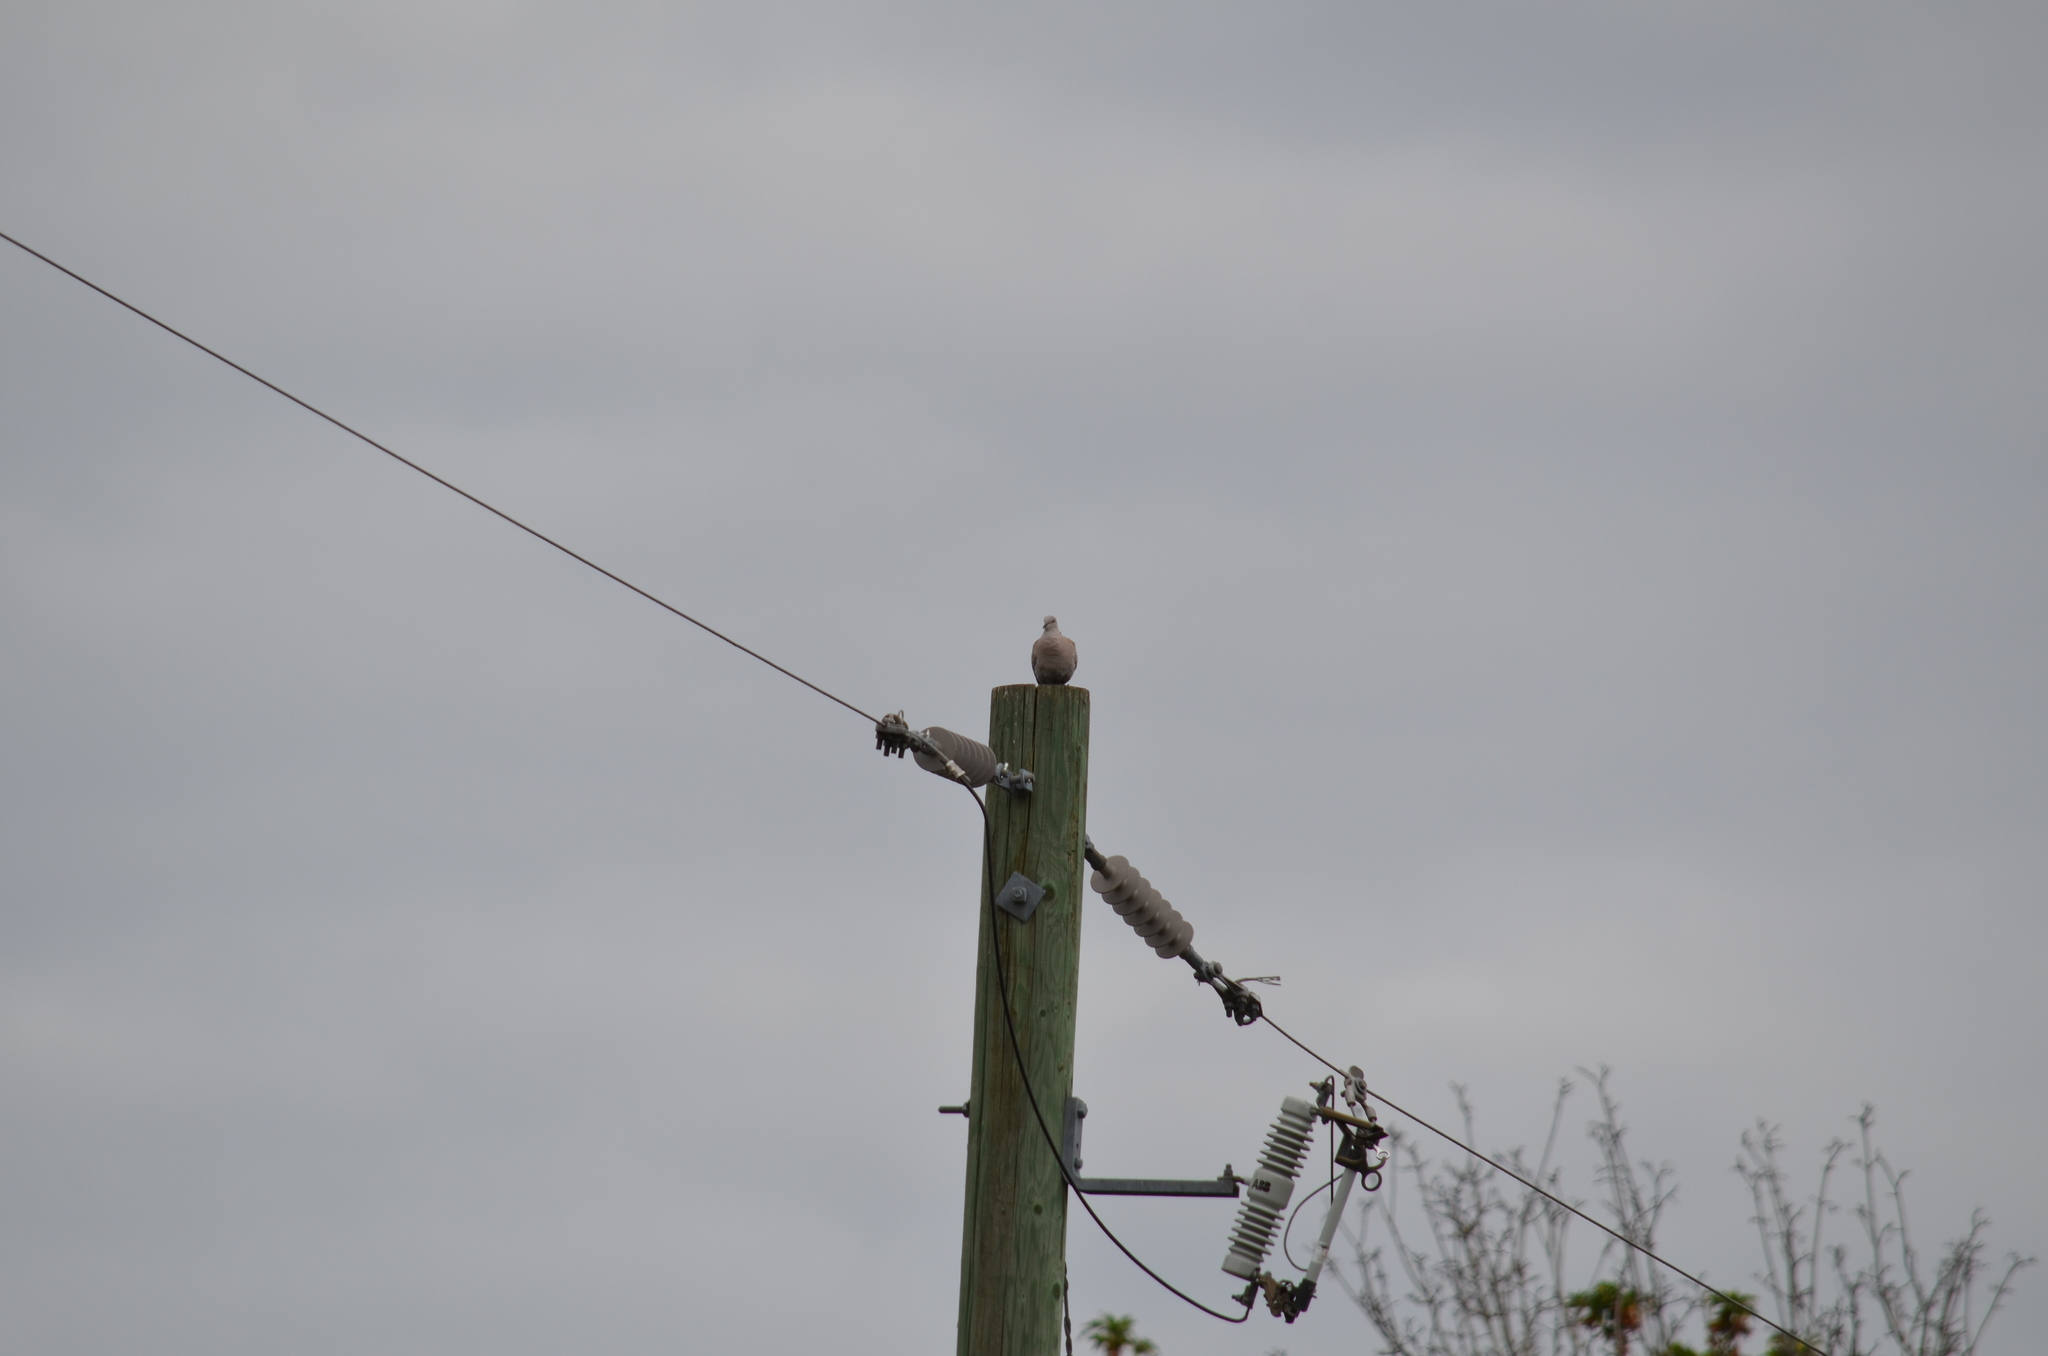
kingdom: Animalia
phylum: Chordata
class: Aves
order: Columbiformes
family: Columbidae
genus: Streptopelia
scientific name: Streptopelia decaocto
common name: Eurasian collared dove
